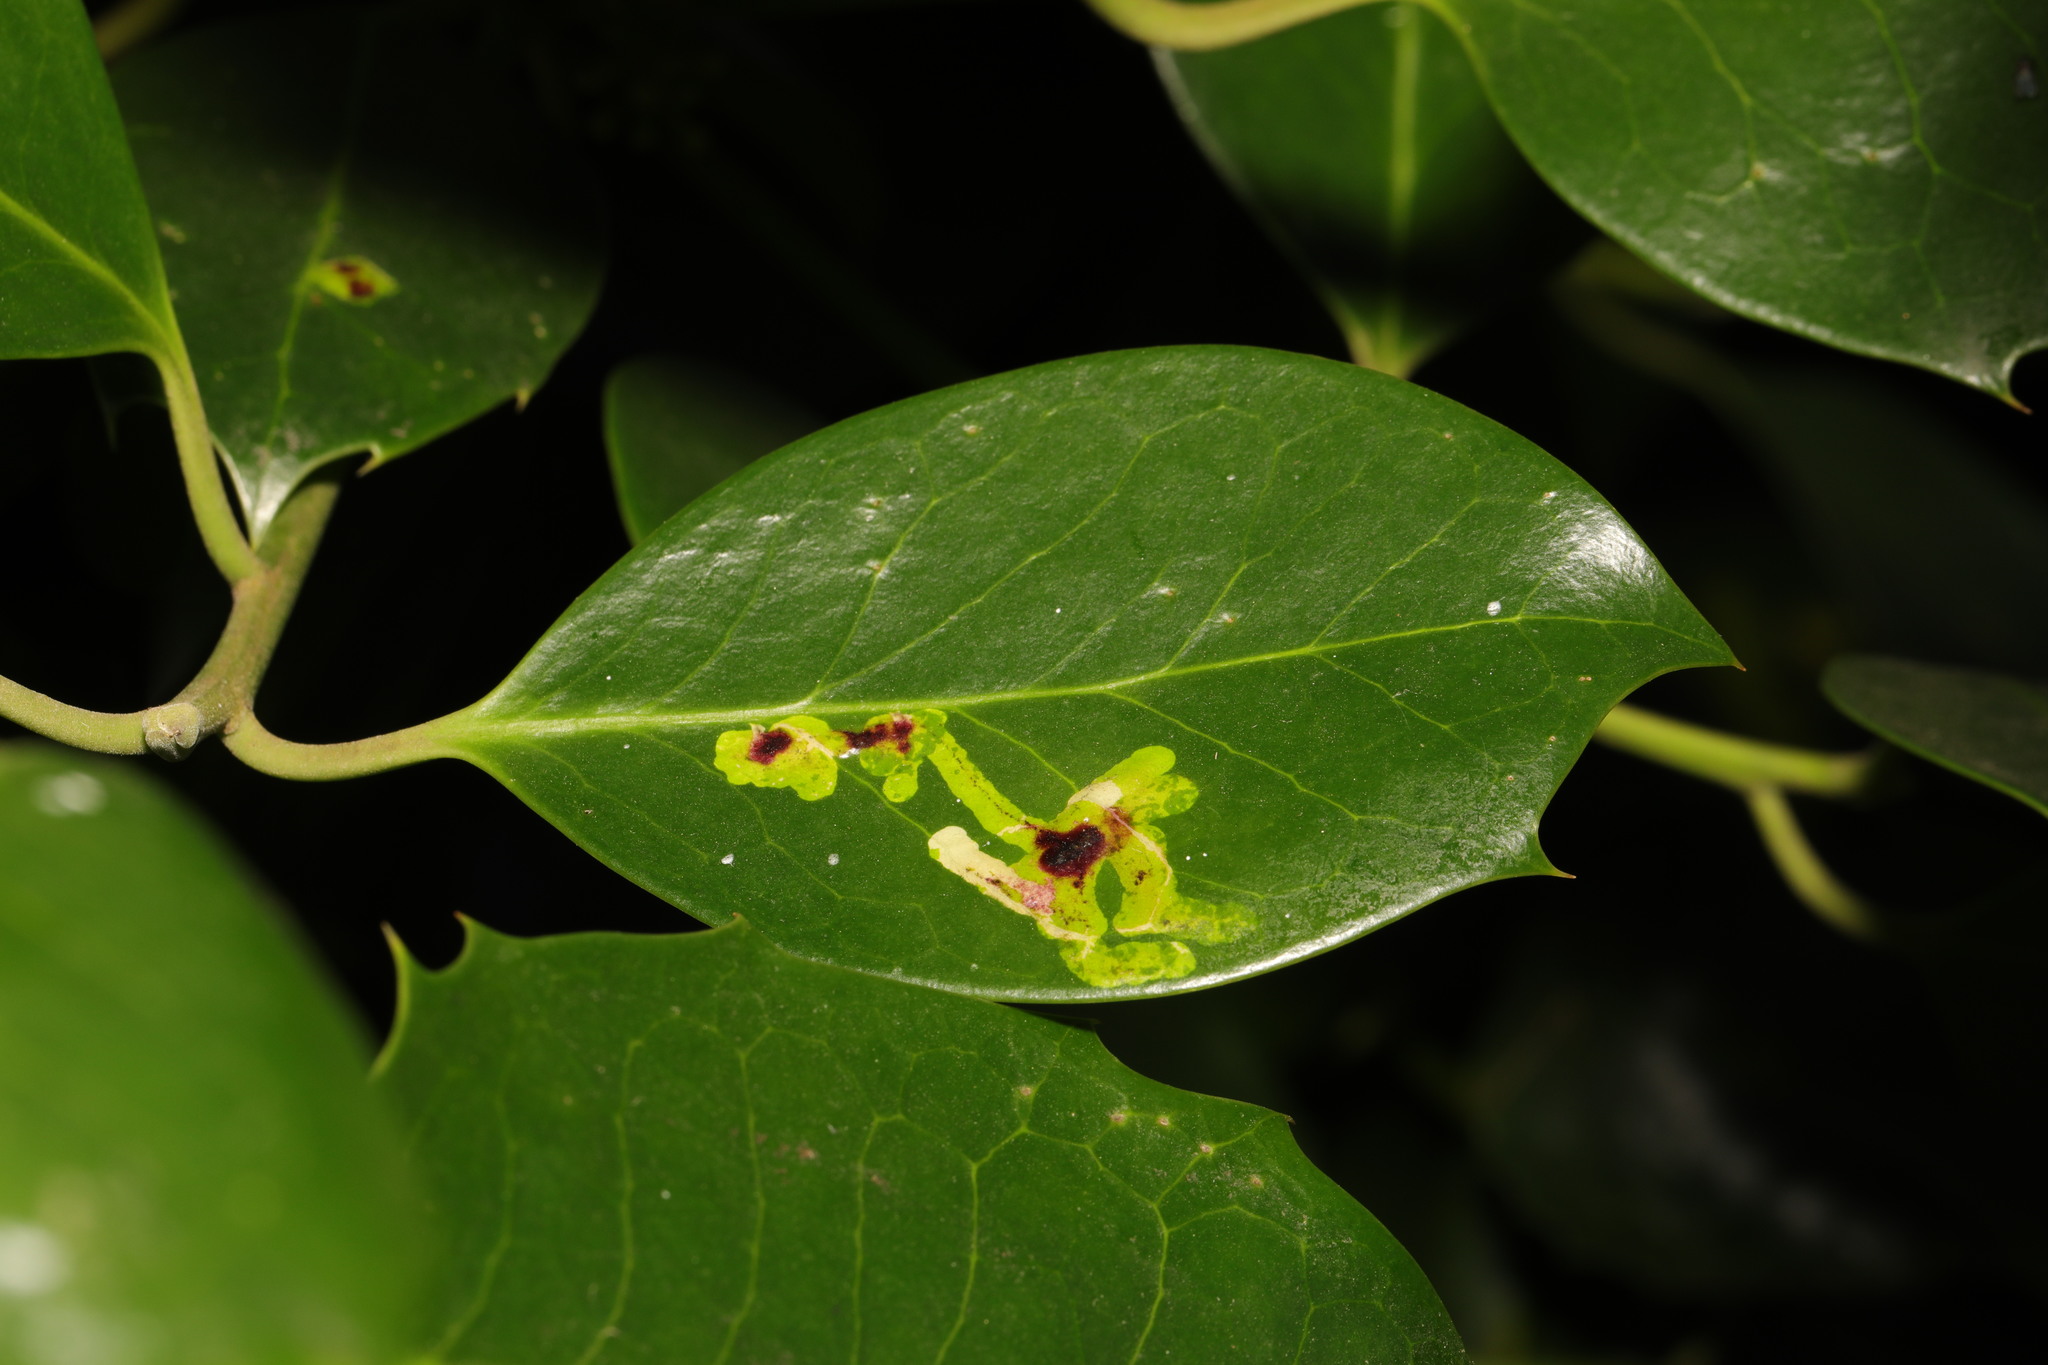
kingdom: Animalia
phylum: Arthropoda
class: Insecta
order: Diptera
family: Agromyzidae
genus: Phytomyza
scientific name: Phytomyza ilicis
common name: Holly leafminer
